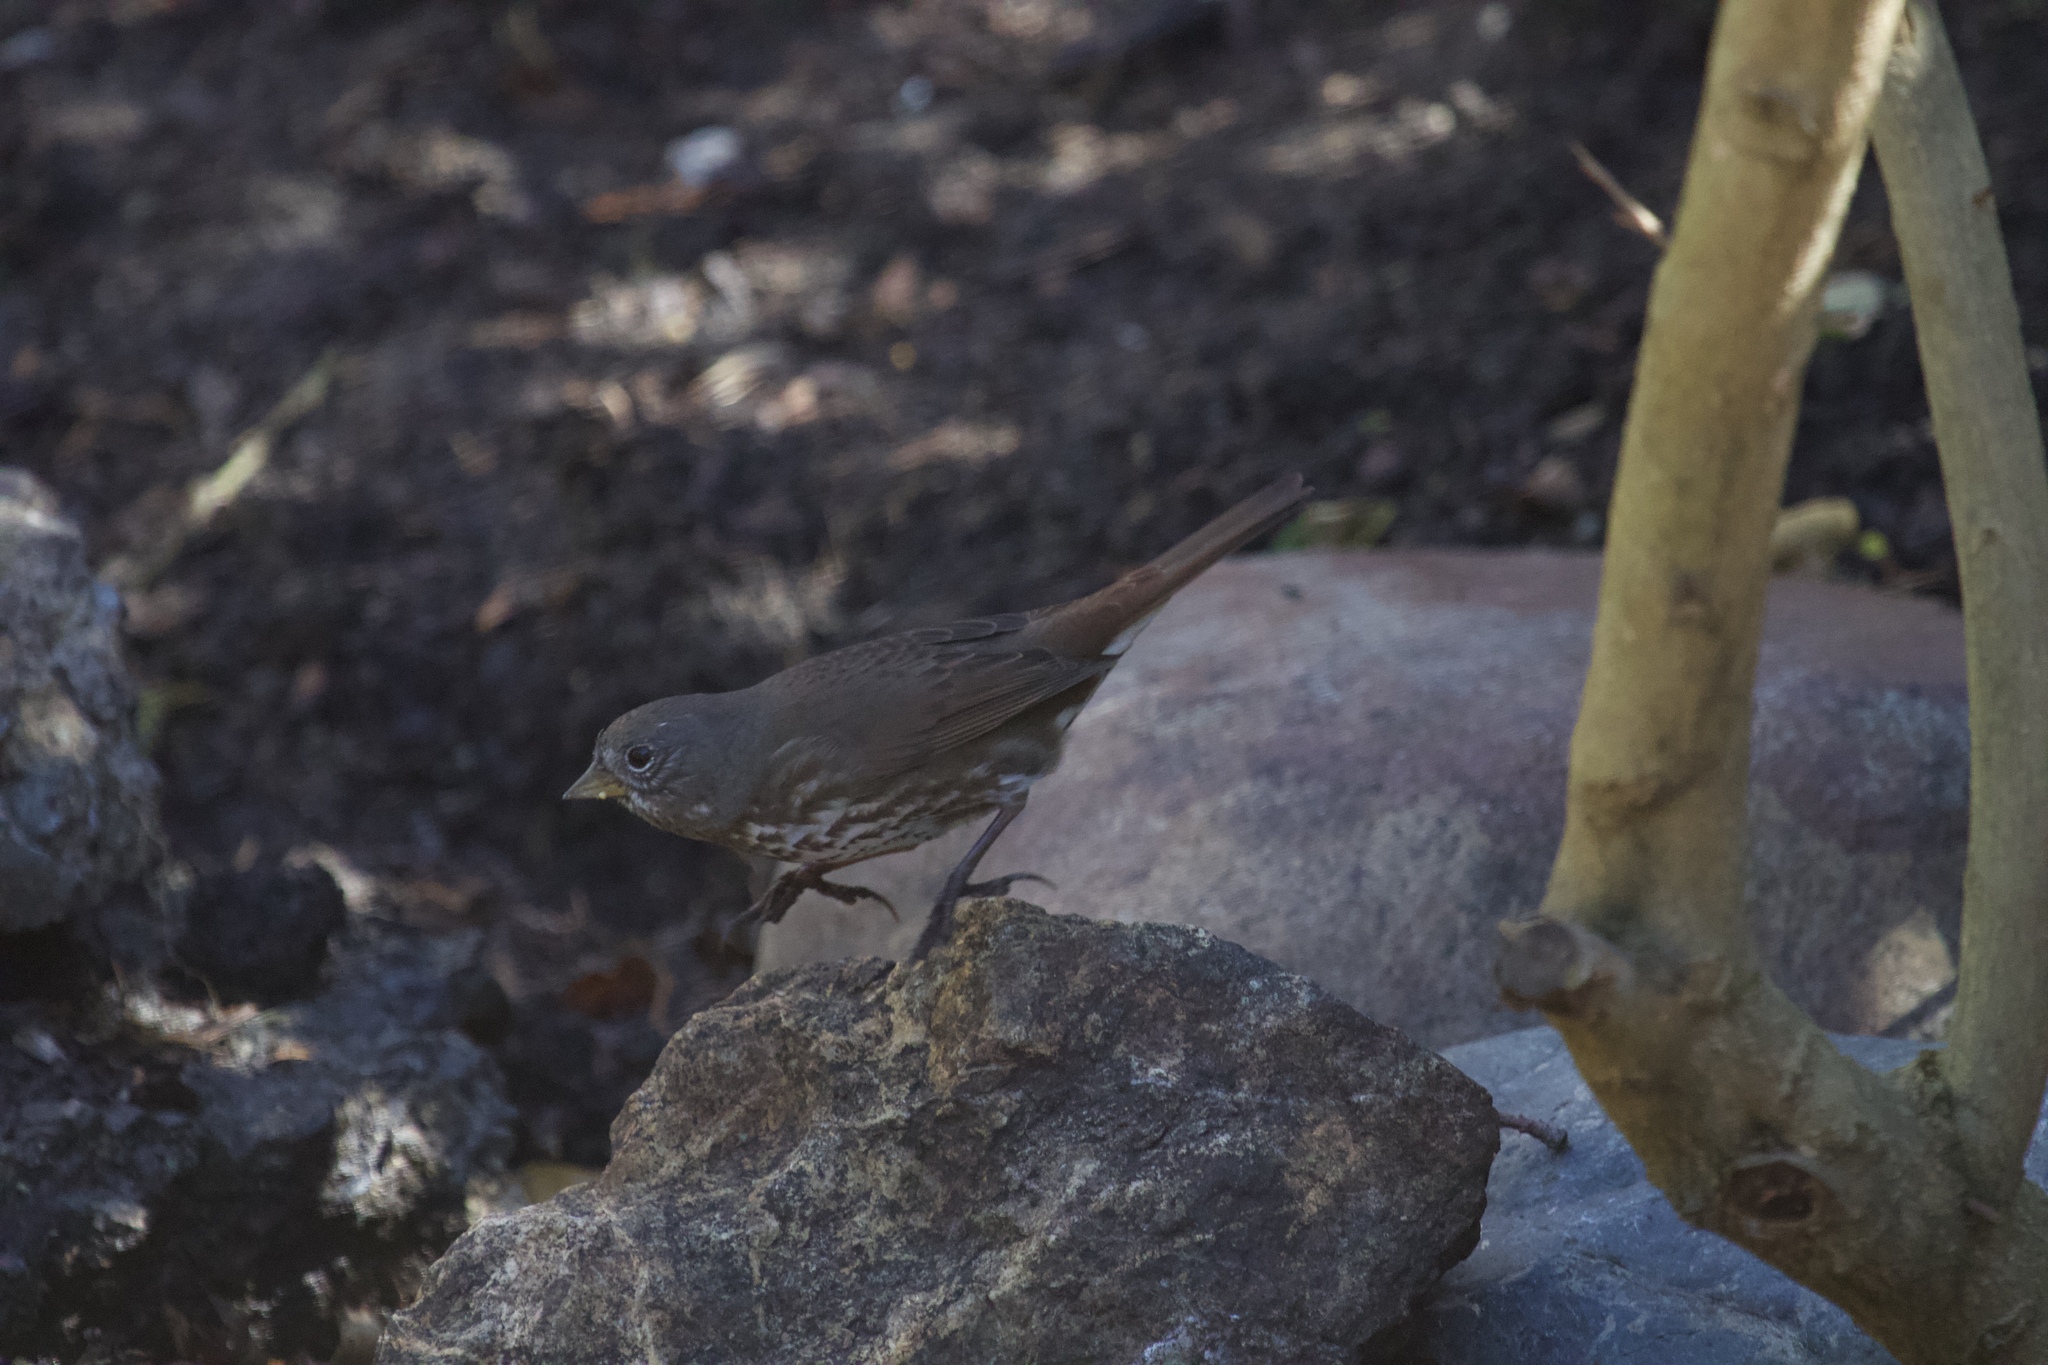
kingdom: Animalia
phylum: Chordata
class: Aves
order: Passeriformes
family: Passerellidae
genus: Passerella
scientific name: Passerella iliaca
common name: Fox sparrow
